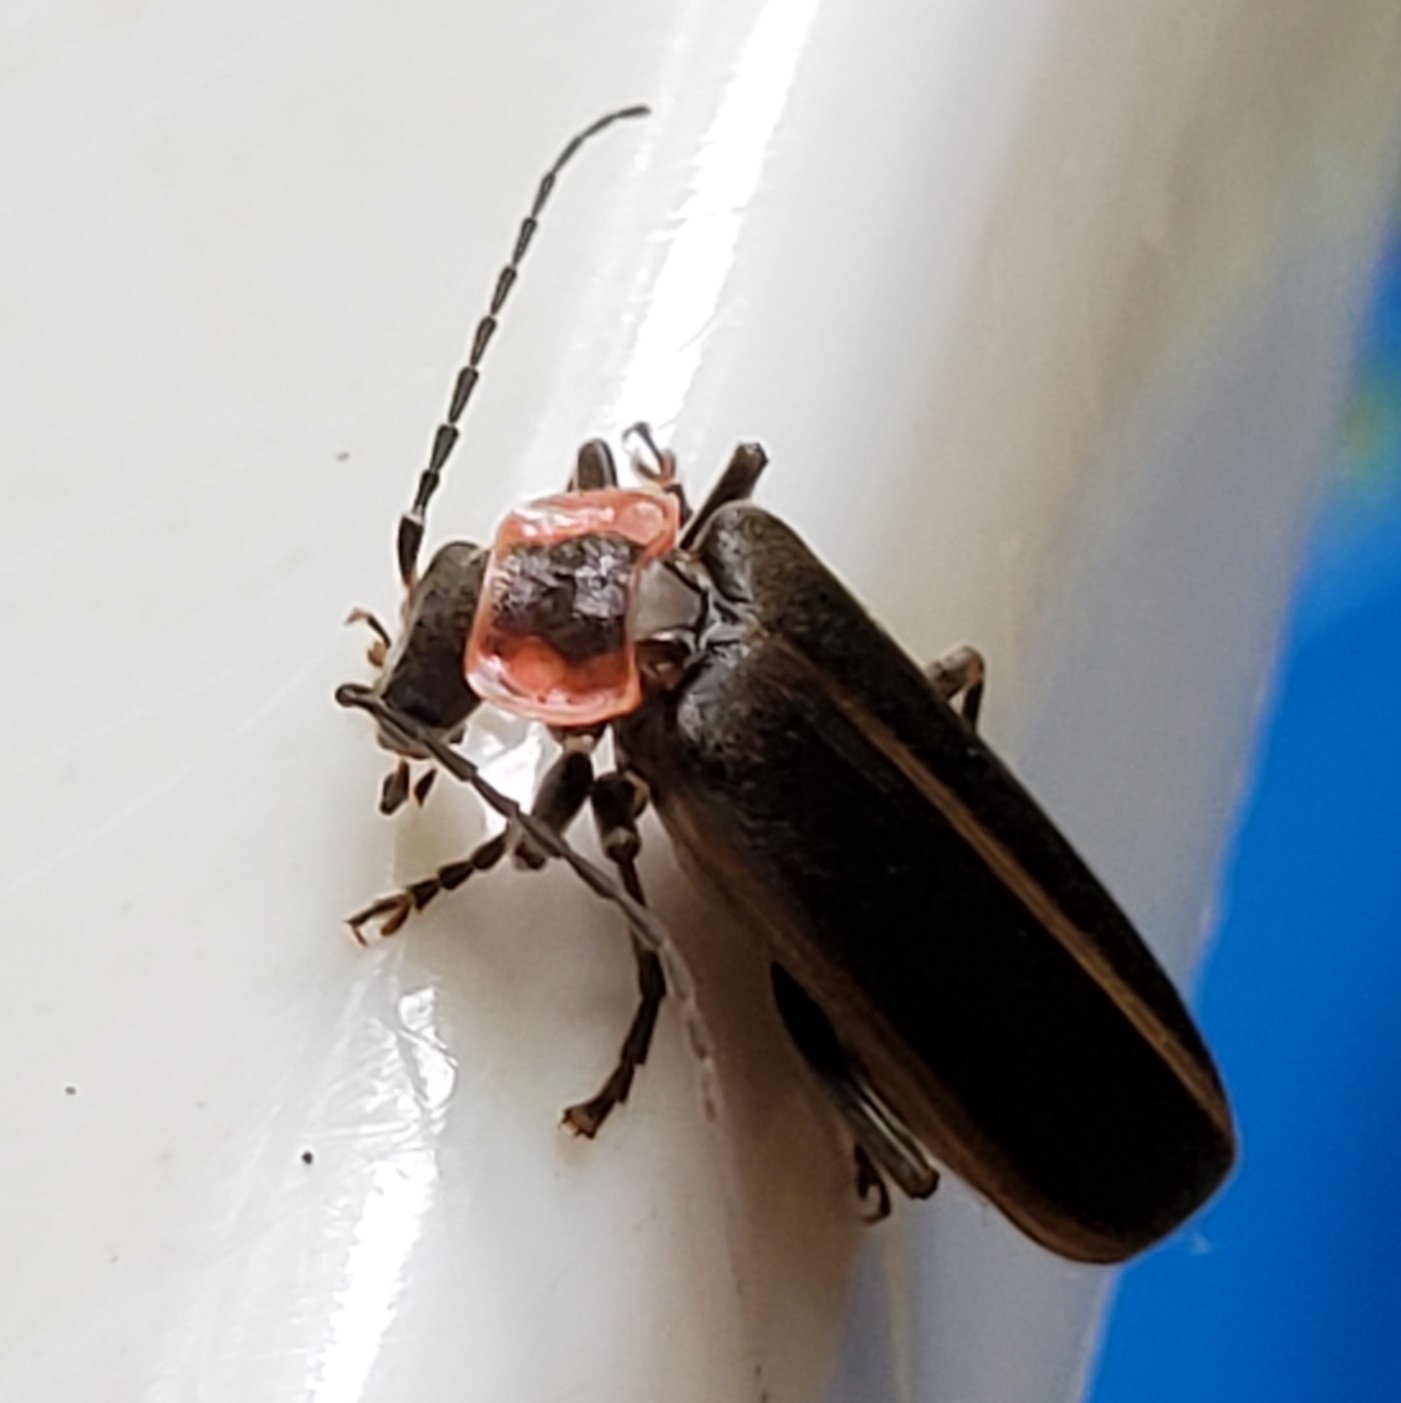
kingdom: Animalia
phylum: Arthropoda
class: Insecta
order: Coleoptera
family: Cantharidae
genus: Podabrus
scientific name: Podabrus brevicollis
